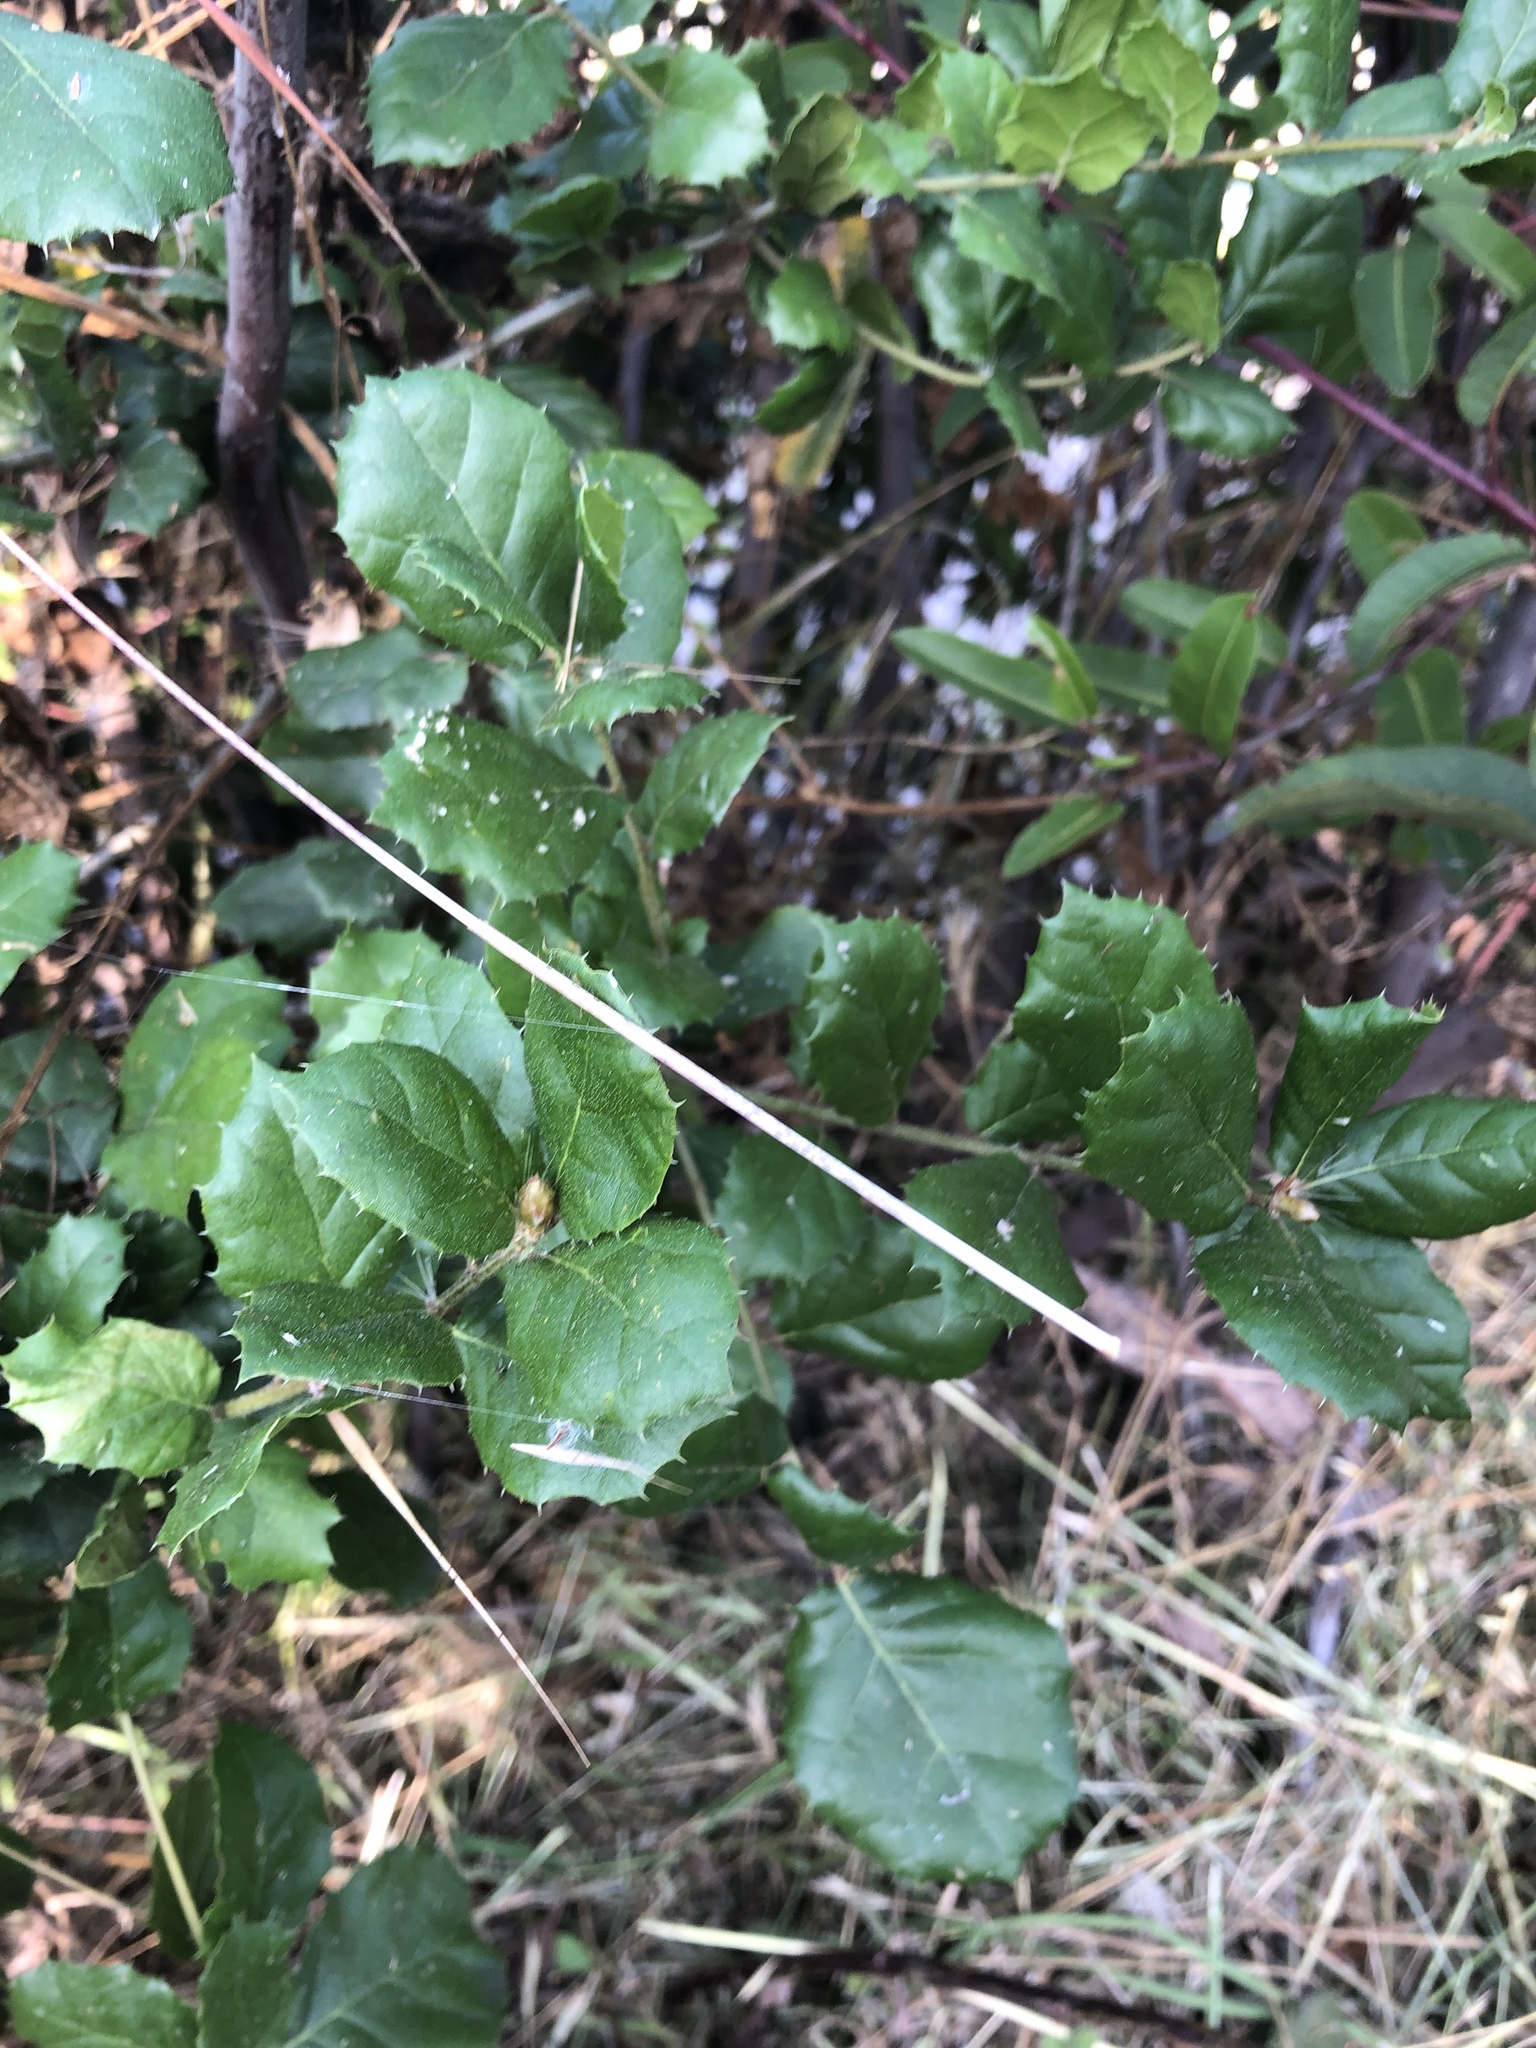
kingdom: Plantae
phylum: Tracheophyta
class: Magnoliopsida
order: Fagales
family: Fagaceae
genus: Quercus
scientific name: Quercus agrifolia
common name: California live oak
